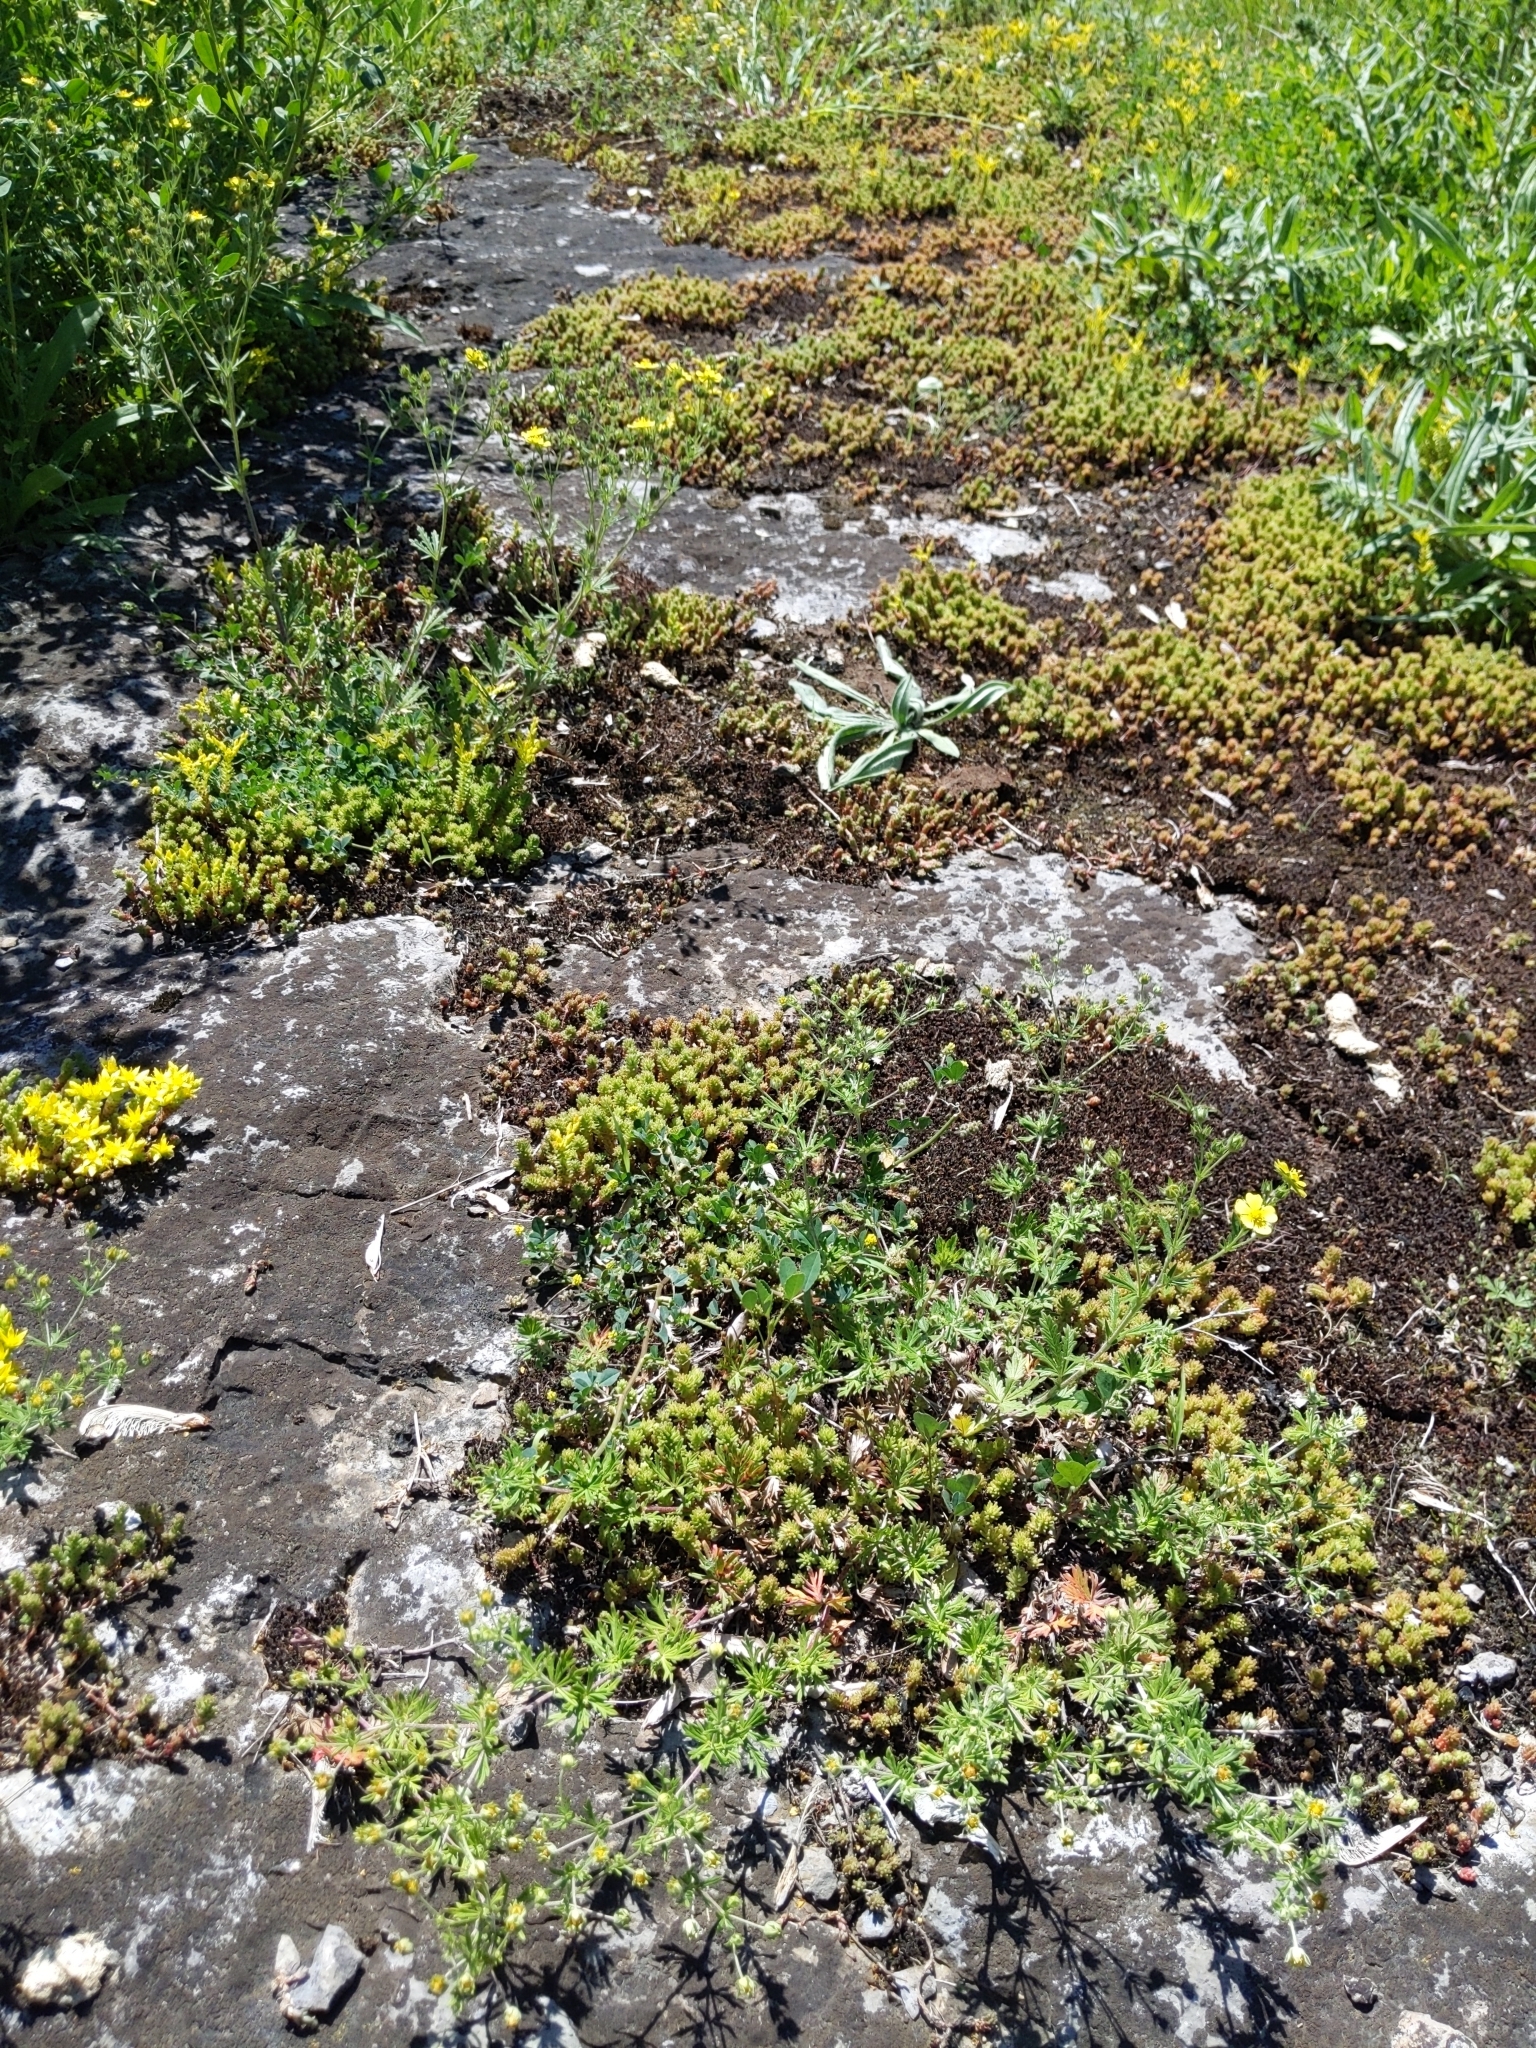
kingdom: Plantae
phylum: Tracheophyta
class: Magnoliopsida
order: Saxifragales
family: Crassulaceae
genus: Sedum
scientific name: Sedum acre
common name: Biting stonecrop
